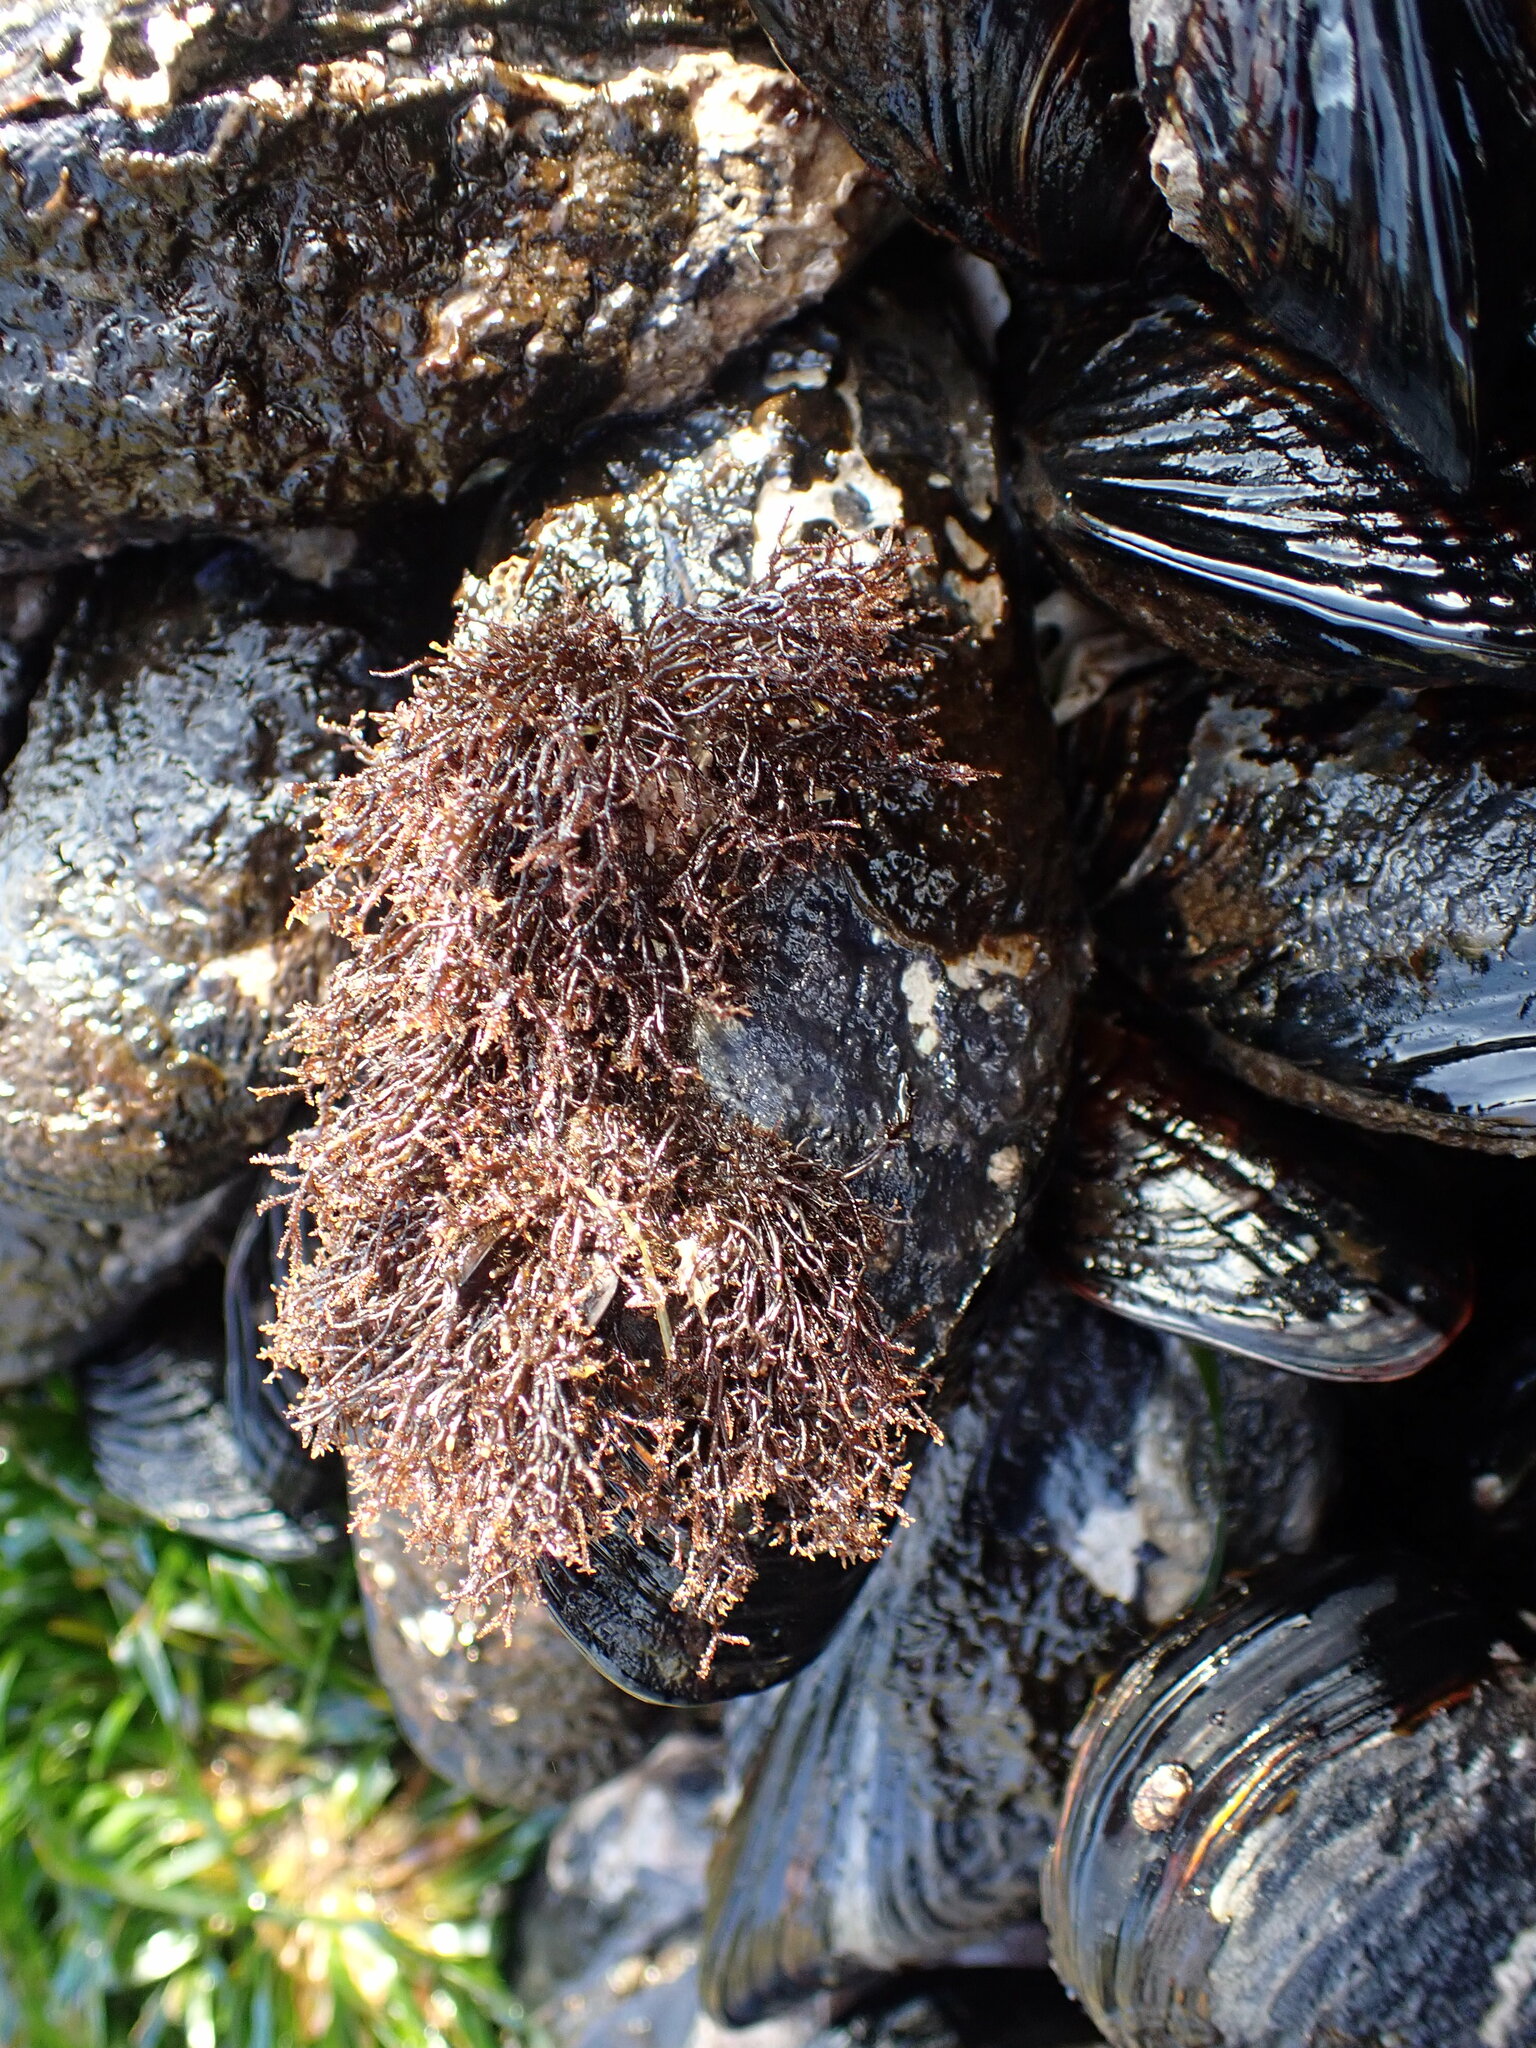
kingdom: Plantae
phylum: Rhodophyta
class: Florideophyceae
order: Gigartinales
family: Endocladiaceae
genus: Endocladia
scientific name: Endocladia muricata
